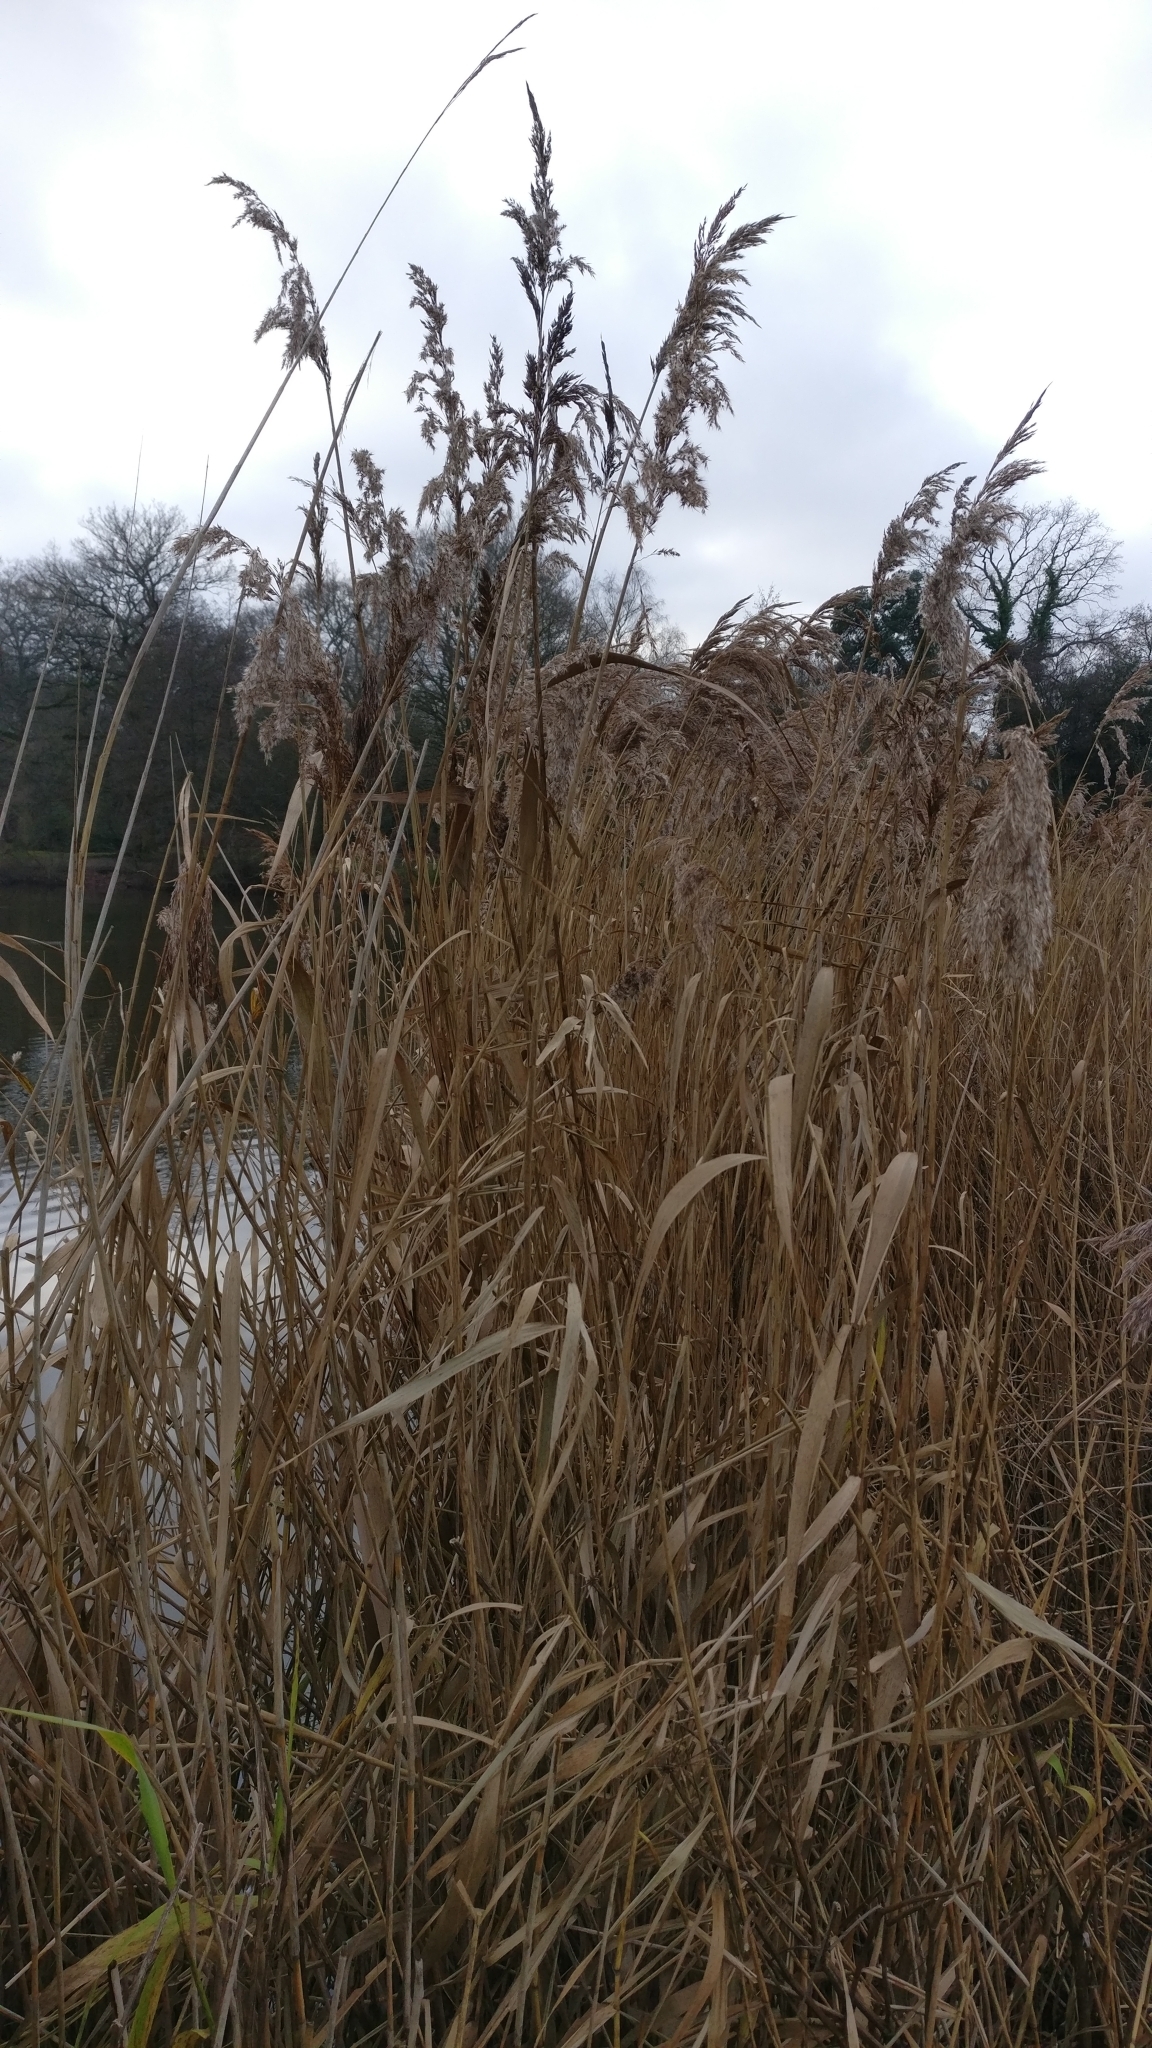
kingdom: Plantae
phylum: Tracheophyta
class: Liliopsida
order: Poales
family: Poaceae
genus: Phragmites
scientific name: Phragmites australis
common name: Common reed
